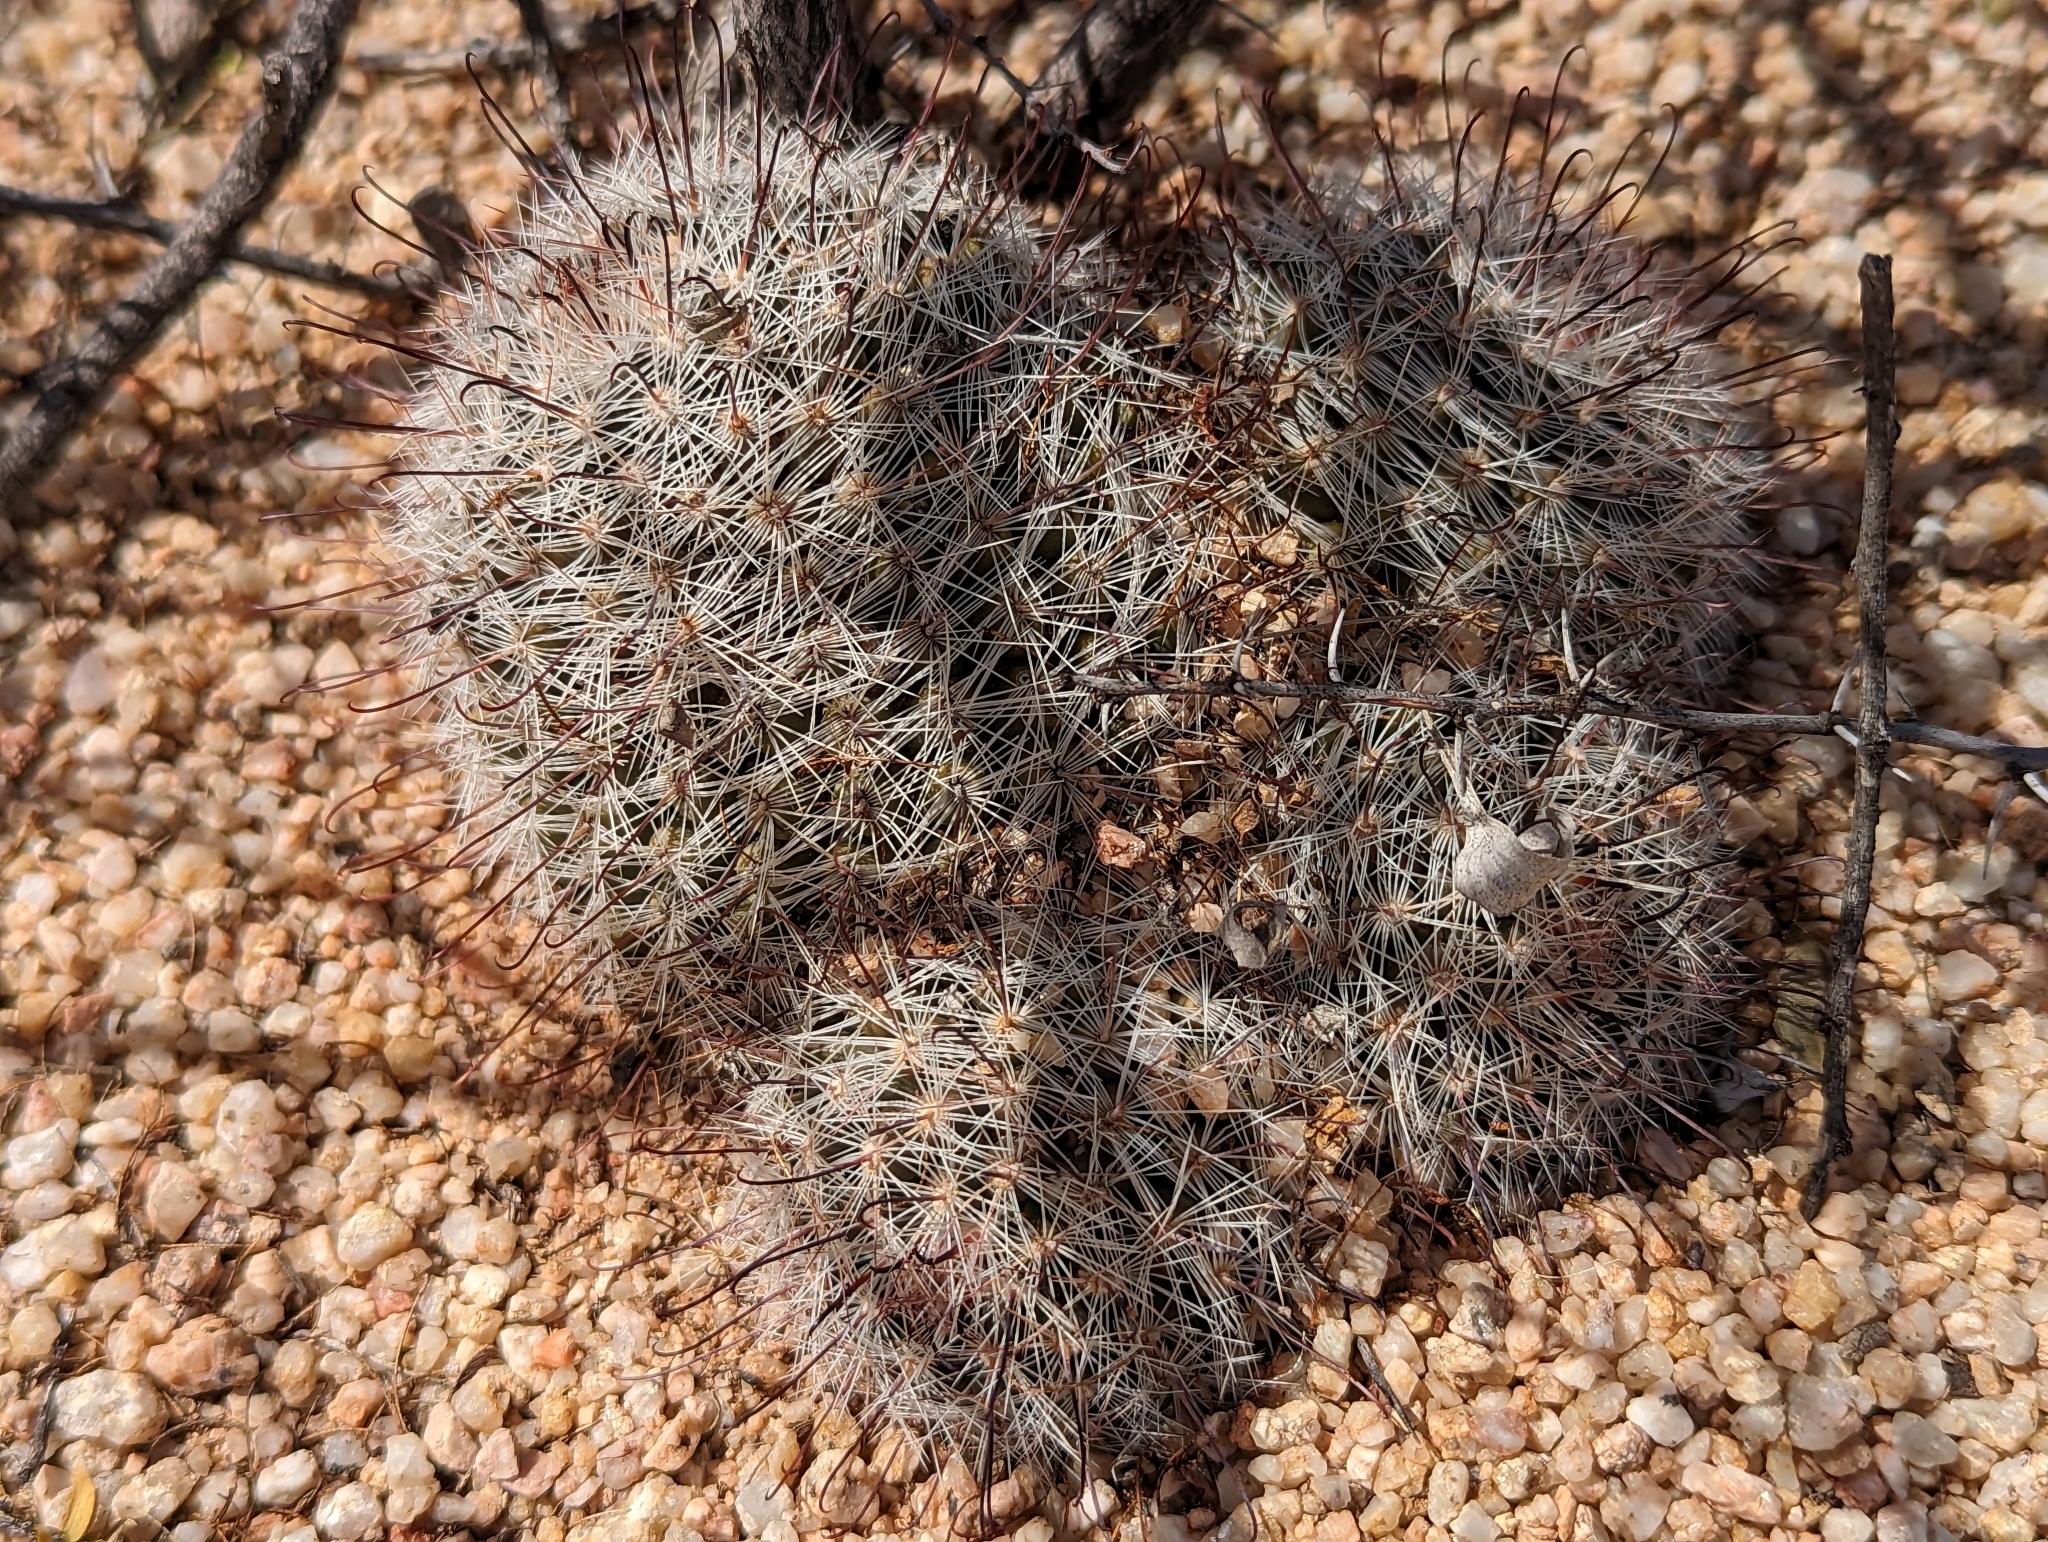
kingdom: Plantae
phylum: Tracheophyta
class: Magnoliopsida
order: Caryophyllales
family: Cactaceae
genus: Cochemiea
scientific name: Cochemiea grahamii
